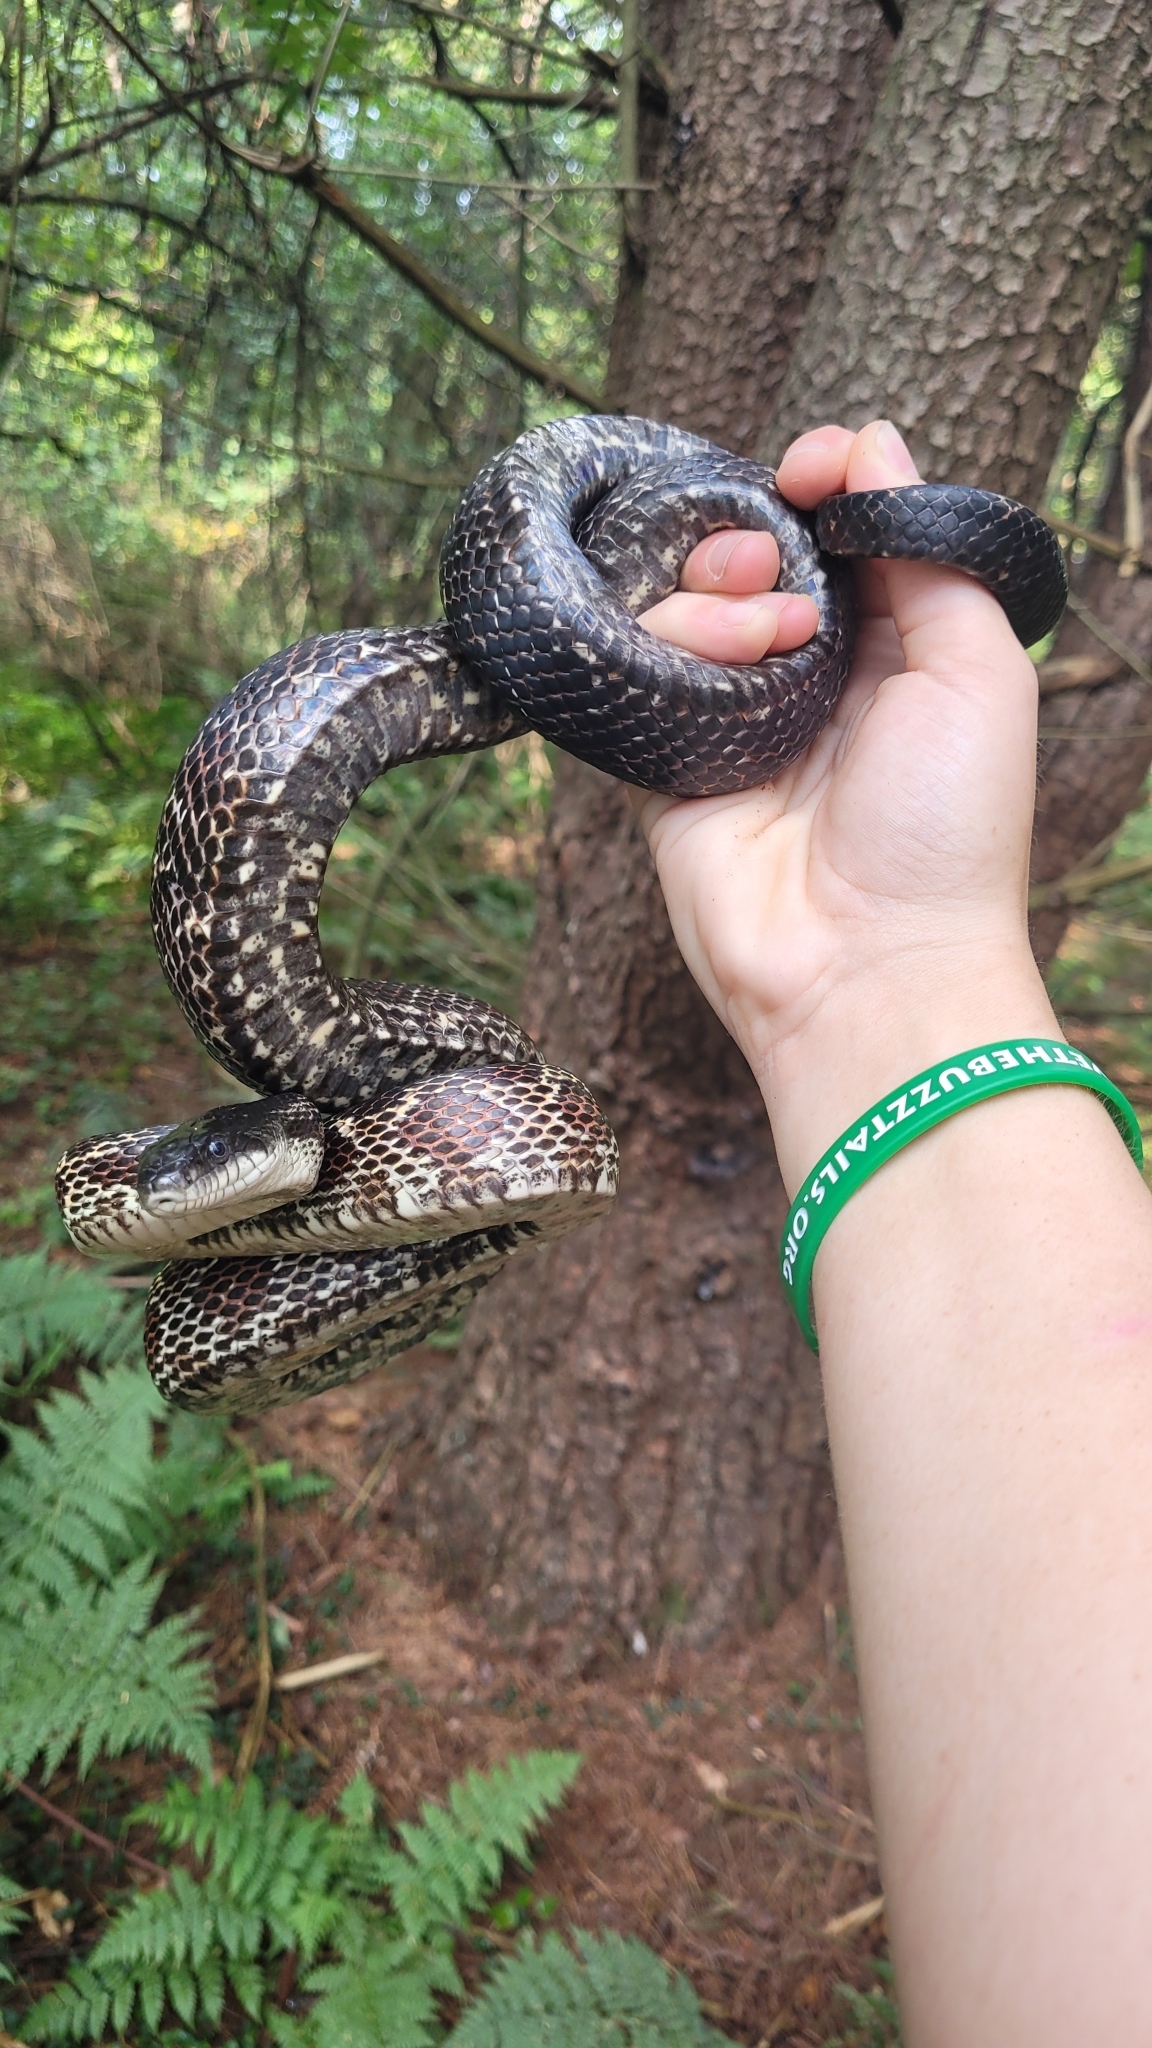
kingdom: Animalia
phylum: Chordata
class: Squamata
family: Colubridae
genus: Pantherophis
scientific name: Pantherophis spiloides
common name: Gray rat snake
